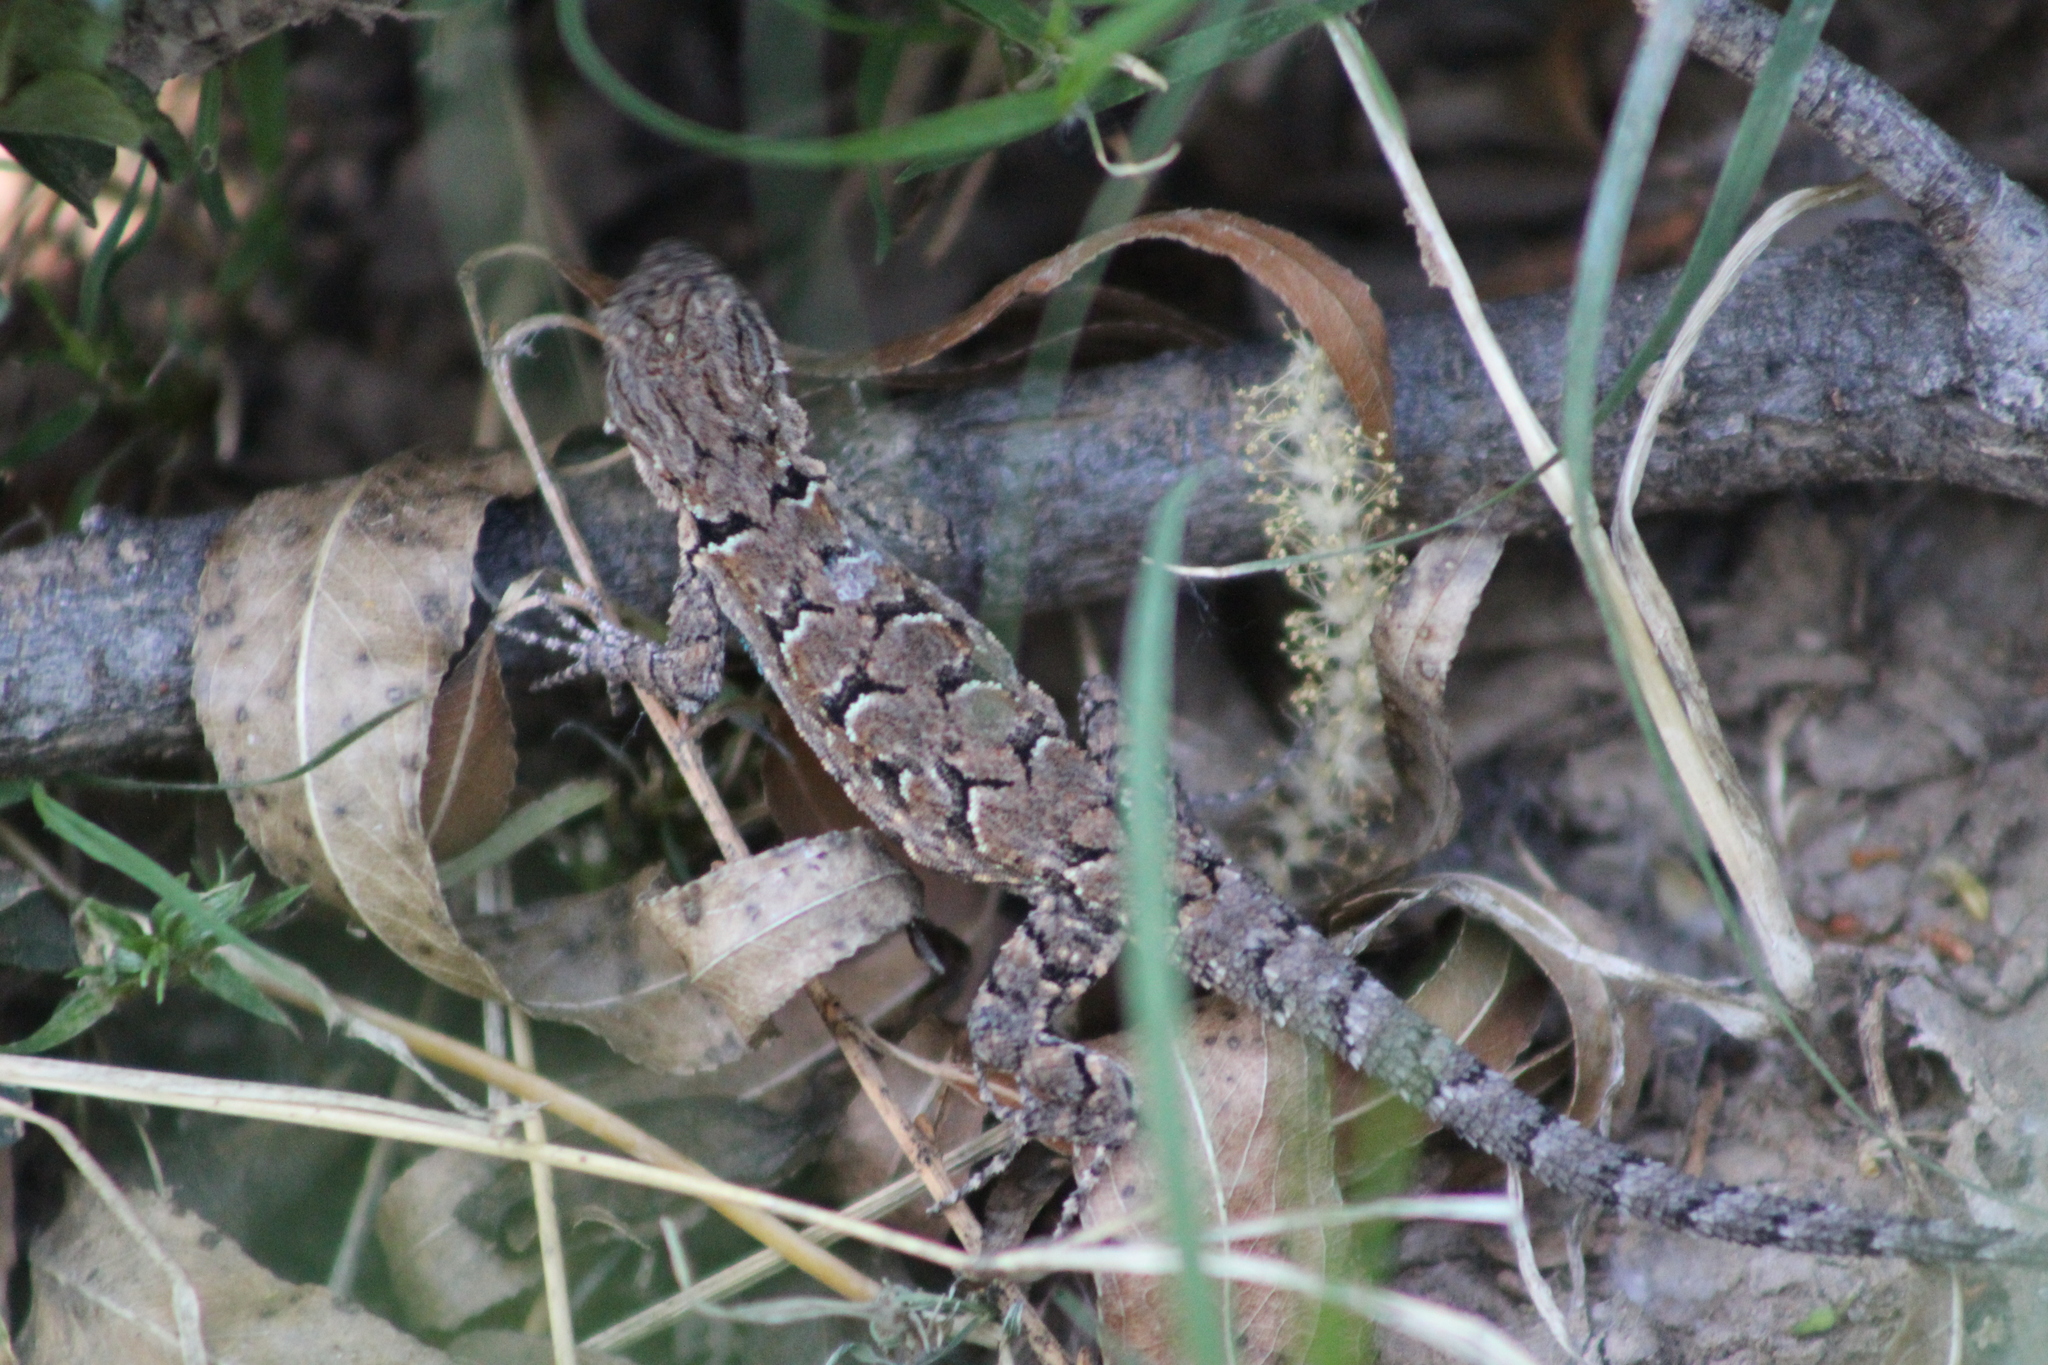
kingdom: Animalia
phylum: Chordata
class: Squamata
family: Phrynosomatidae
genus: Urosaurus
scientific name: Urosaurus ornatus
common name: Ornate tree lizard
